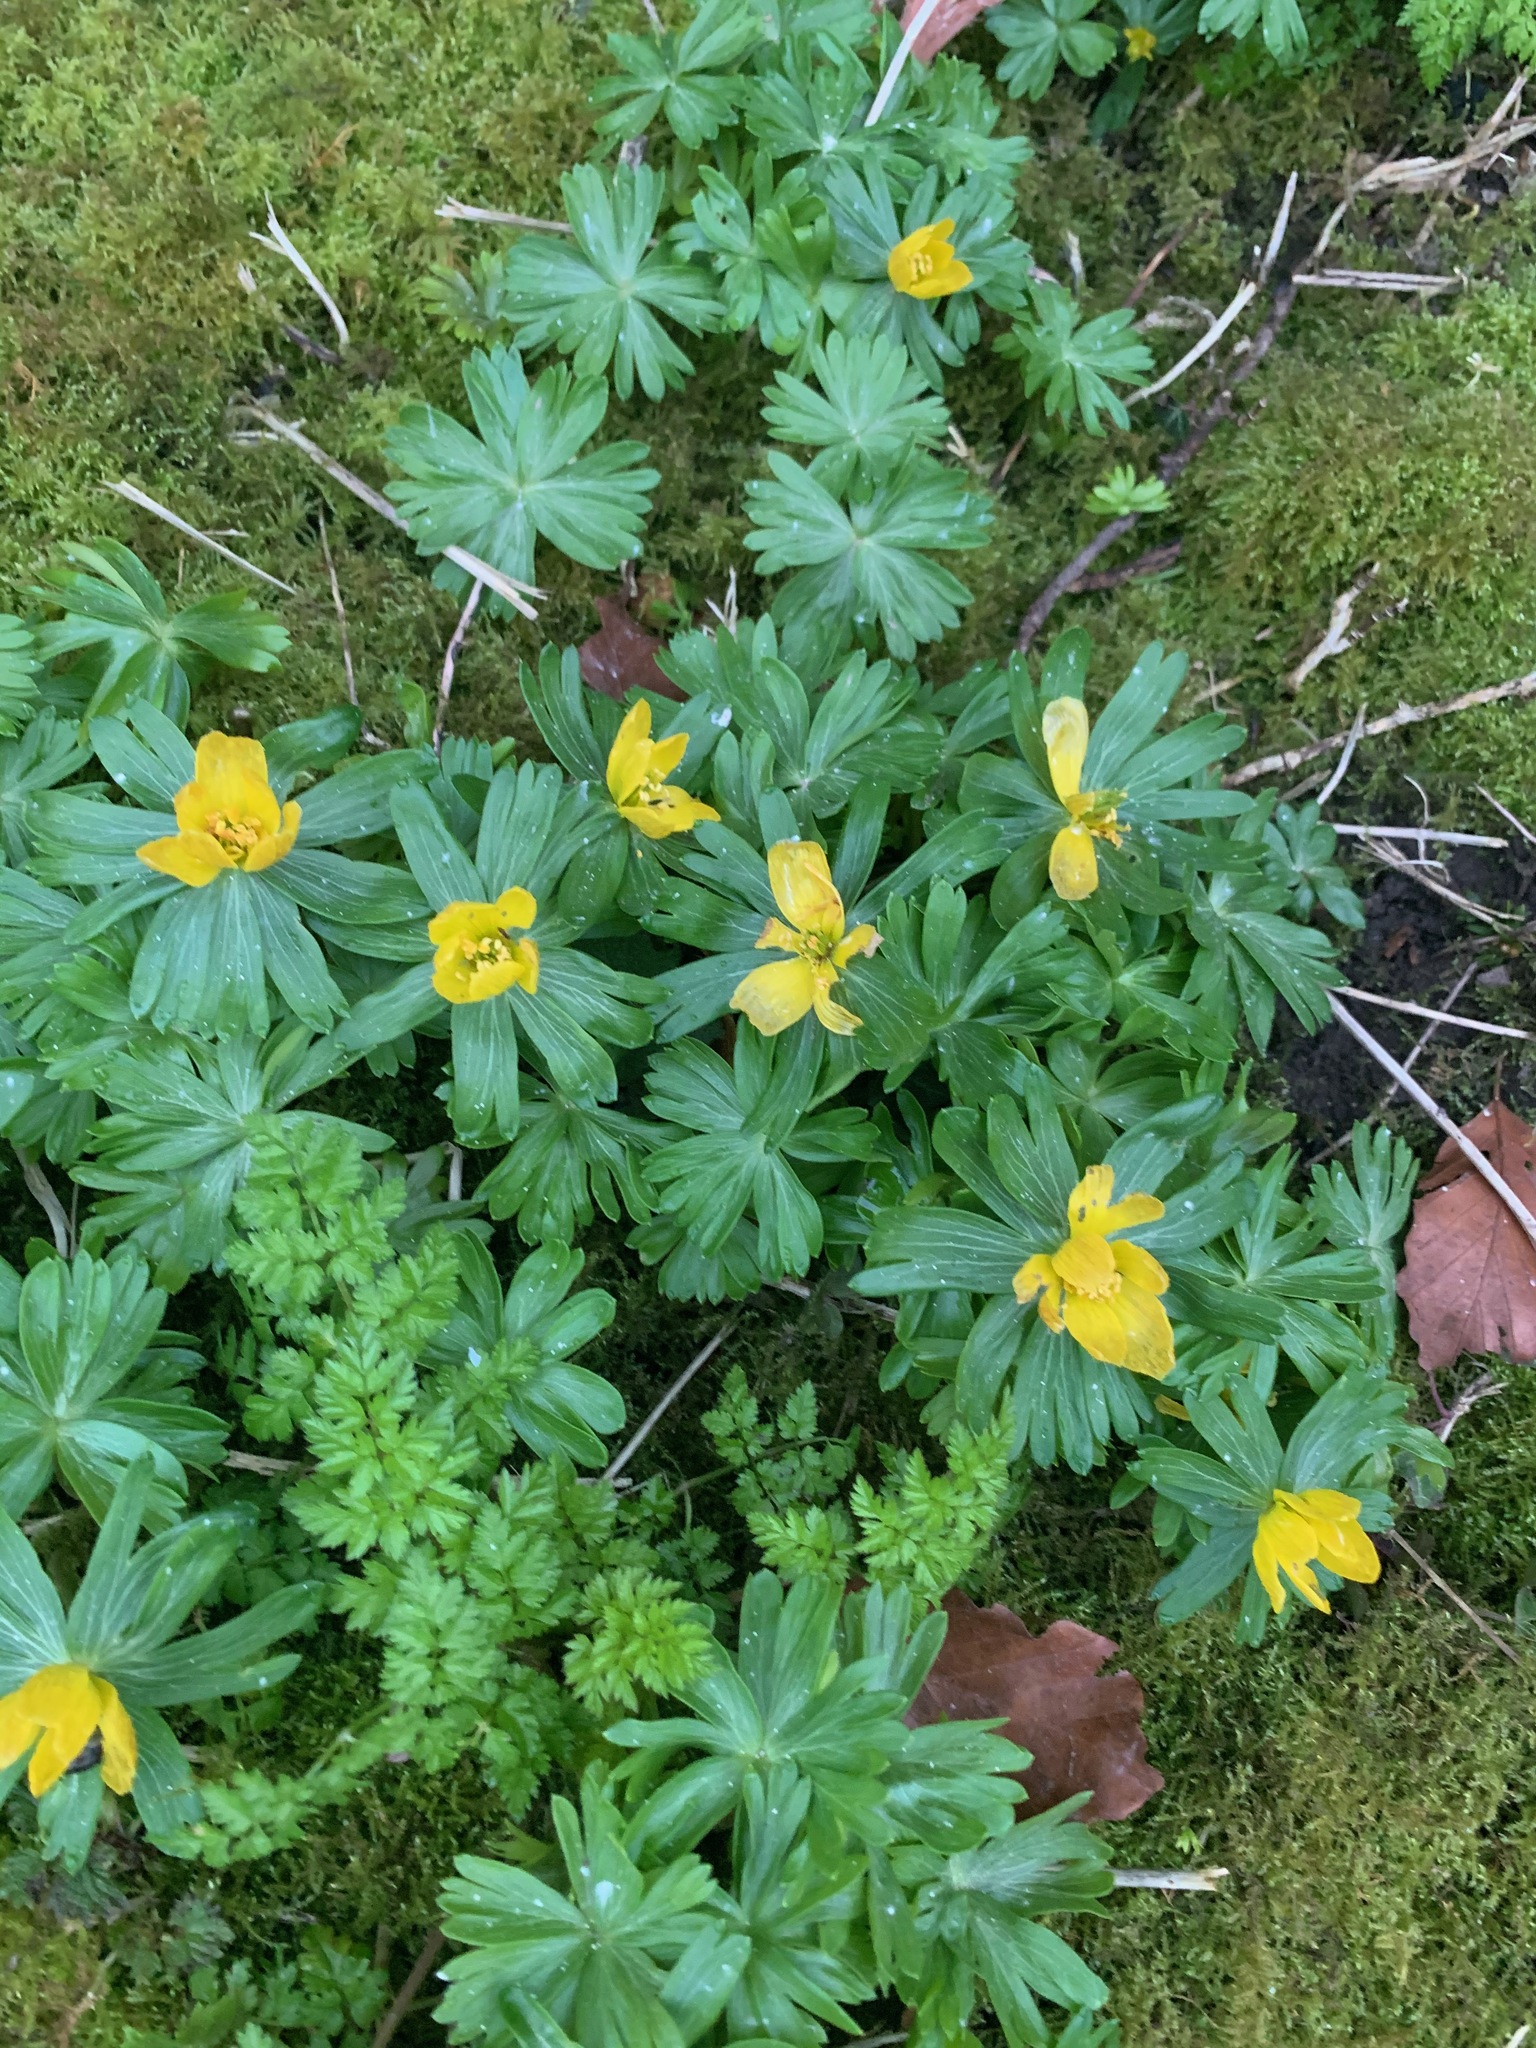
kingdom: Plantae
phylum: Tracheophyta
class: Magnoliopsida
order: Ranunculales
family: Ranunculaceae
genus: Eranthis
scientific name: Eranthis hyemalis
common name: Winter aconite
